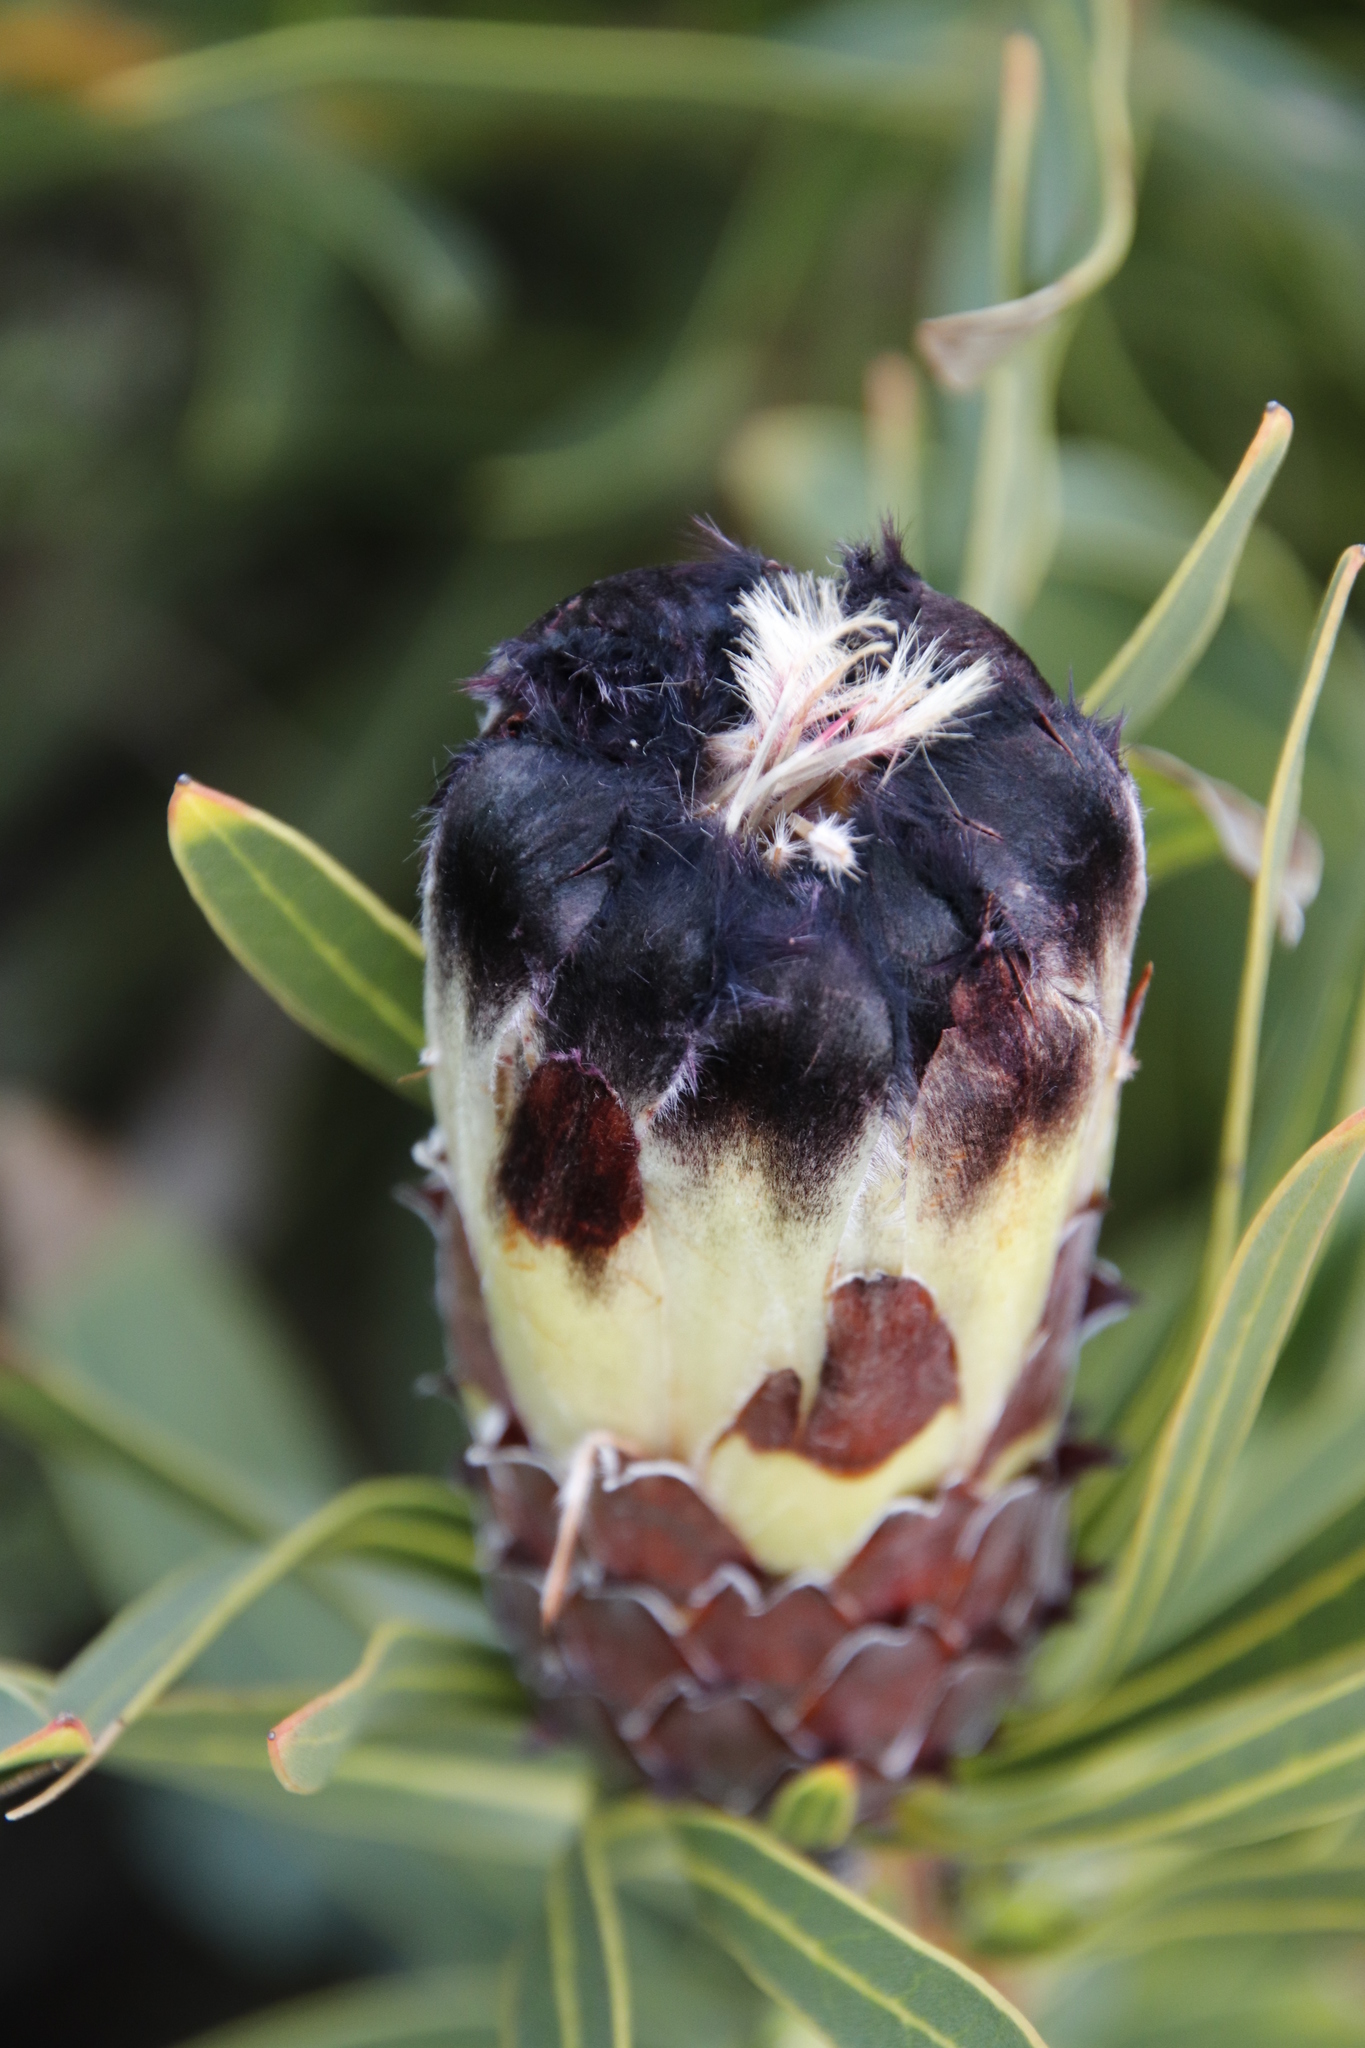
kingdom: Plantae
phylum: Tracheophyta
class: Magnoliopsida
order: Proteales
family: Proteaceae
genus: Protea
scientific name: Protea lepidocarpodendron
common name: Black-bearded protea
